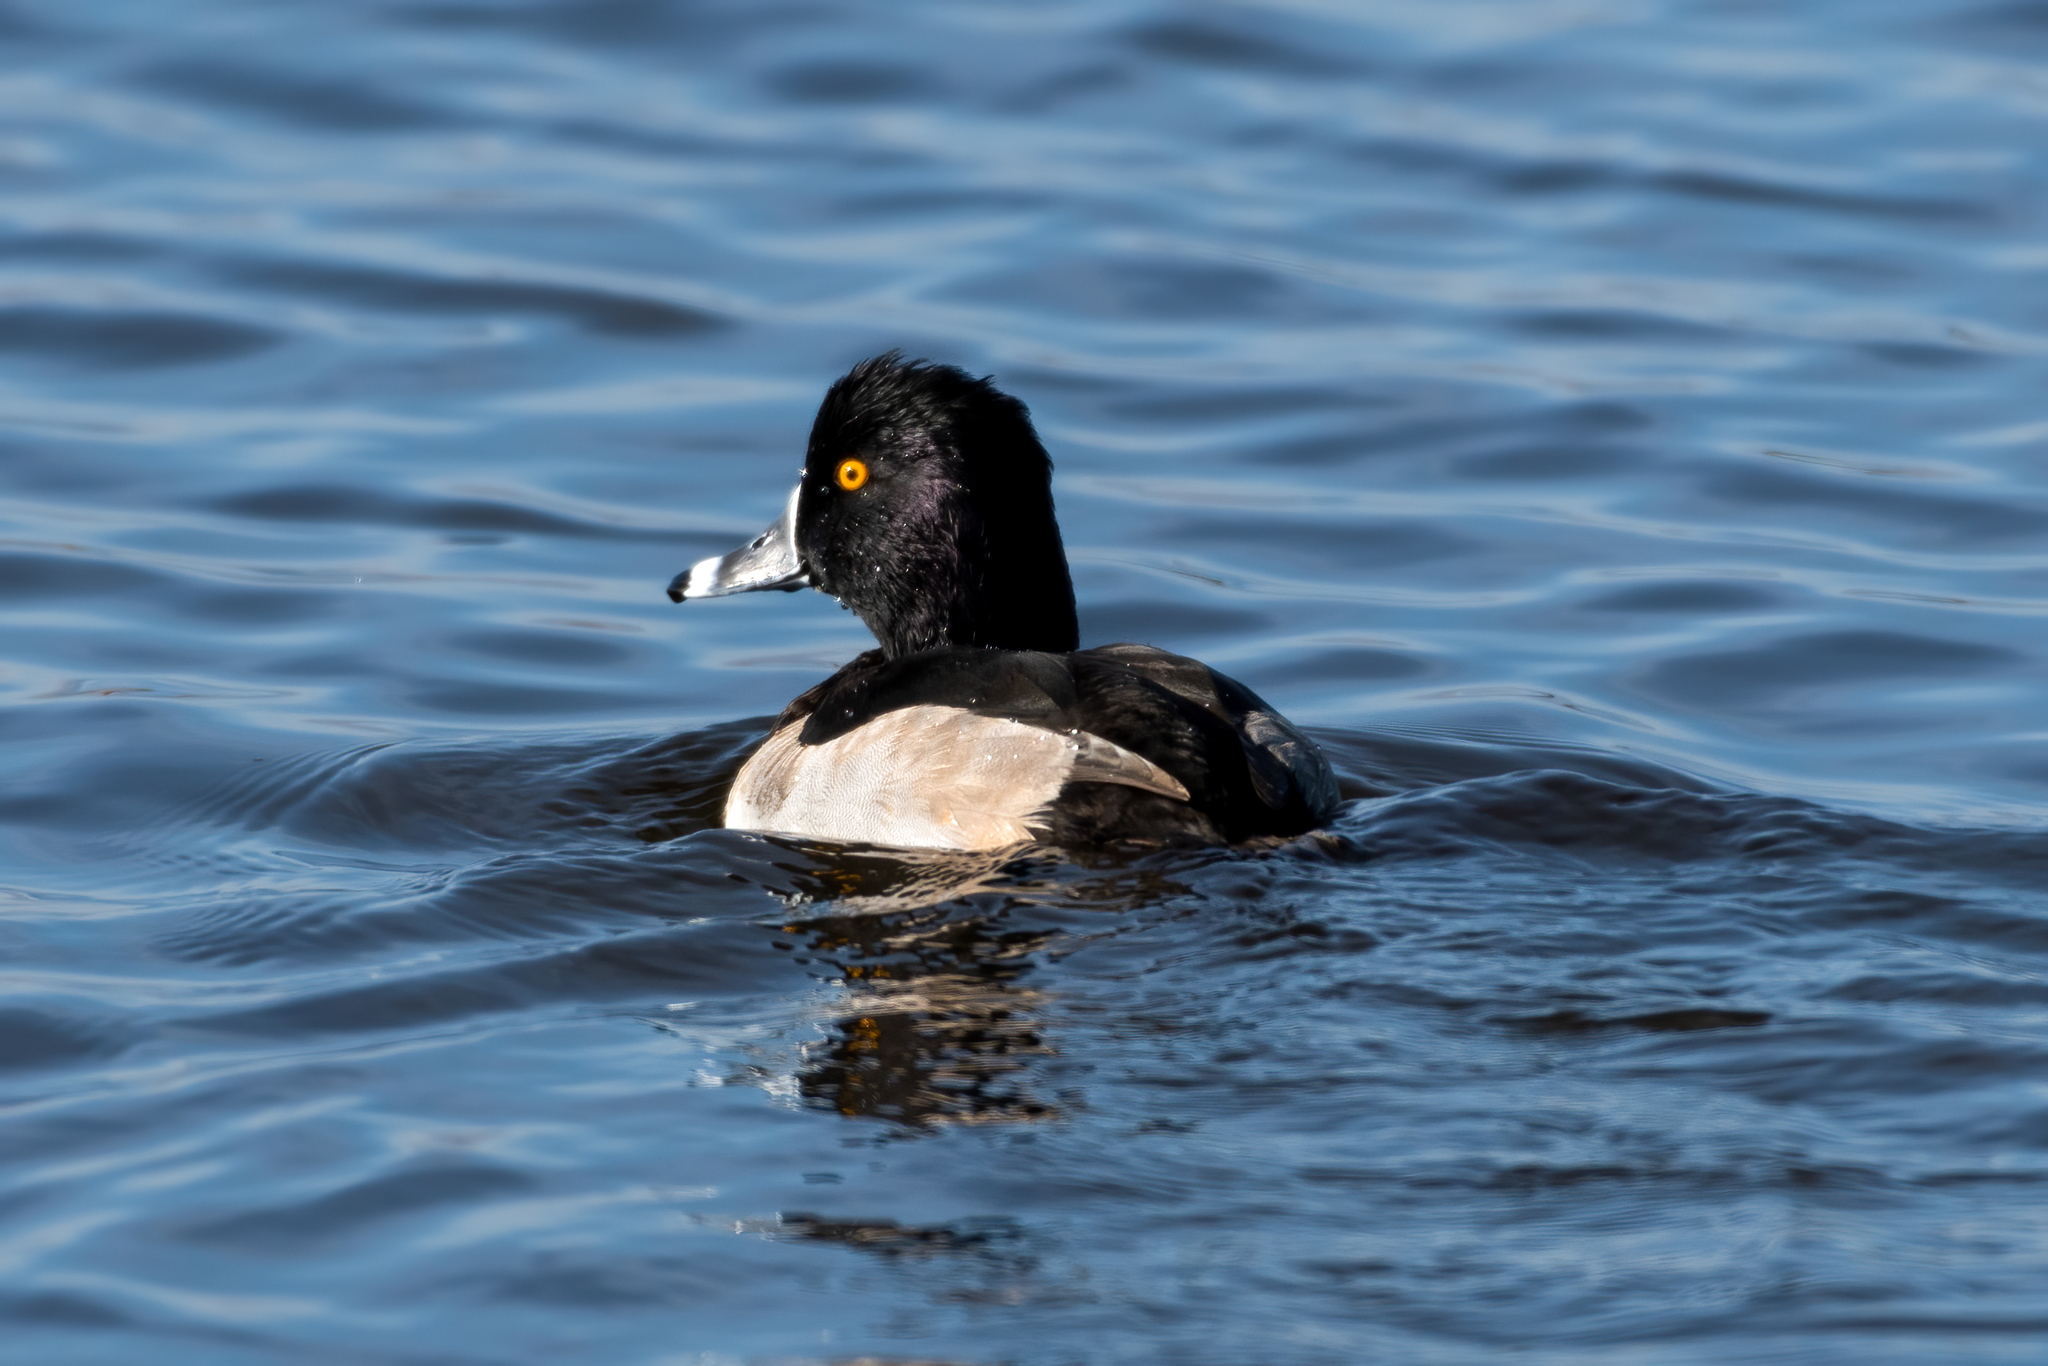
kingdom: Animalia
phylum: Chordata
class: Aves
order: Anseriformes
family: Anatidae
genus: Aythya
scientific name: Aythya collaris
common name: Ring-necked duck
